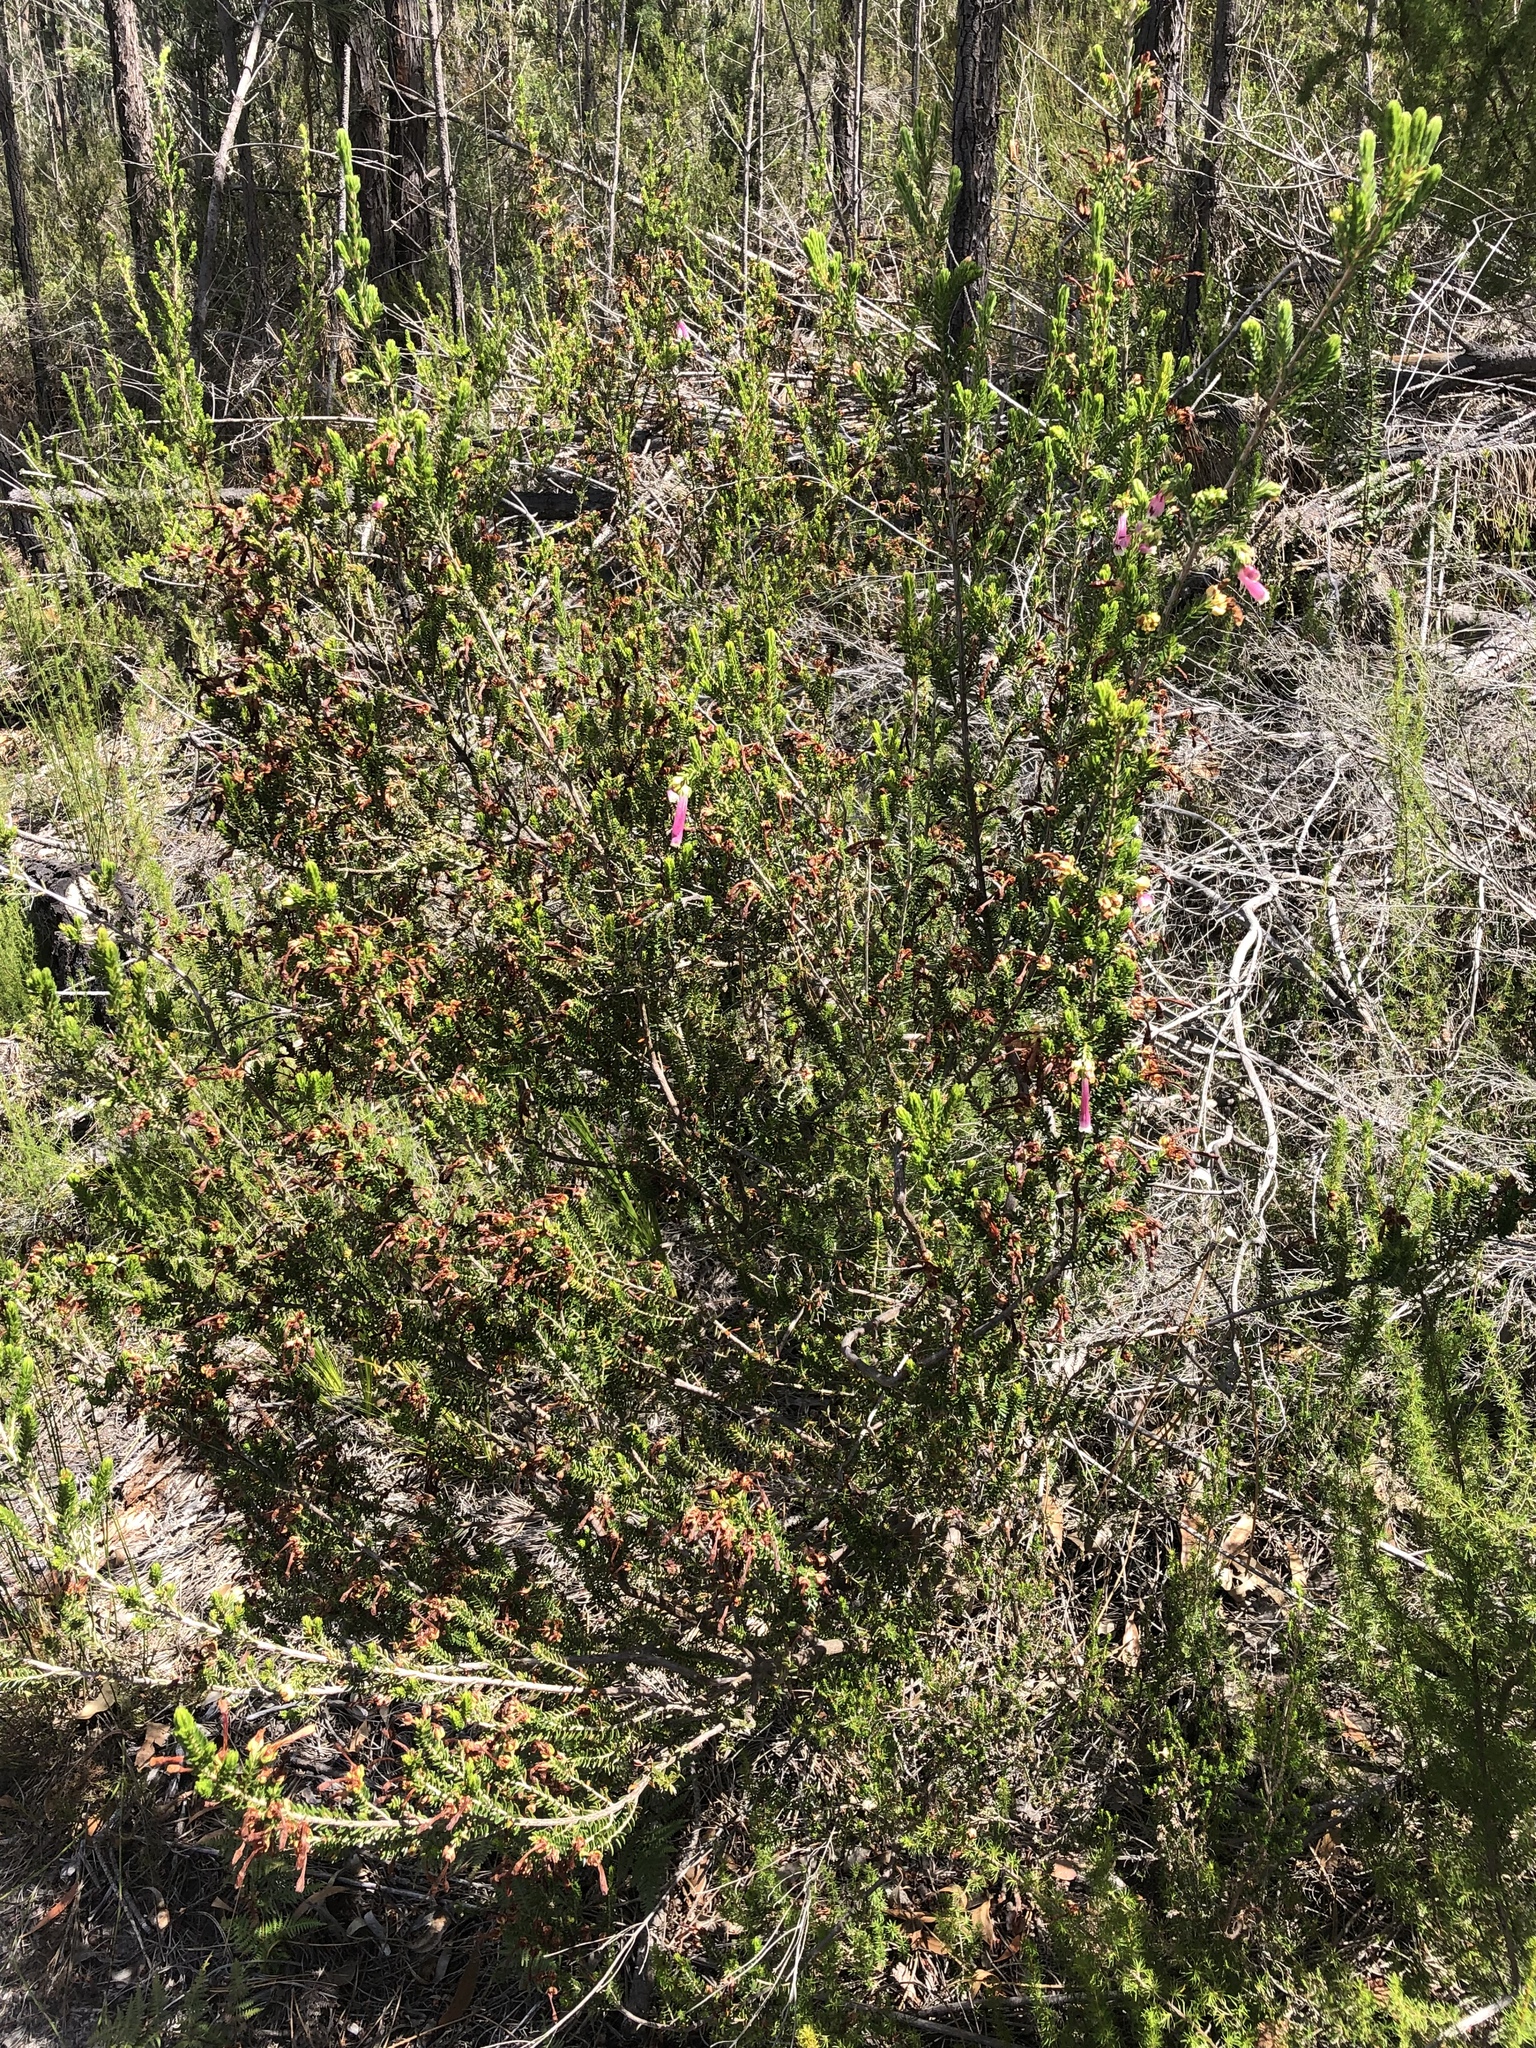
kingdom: Plantae
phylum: Tracheophyta
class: Magnoliopsida
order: Ericales
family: Ericaceae
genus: Erica
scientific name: Erica diaphana
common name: Heath
